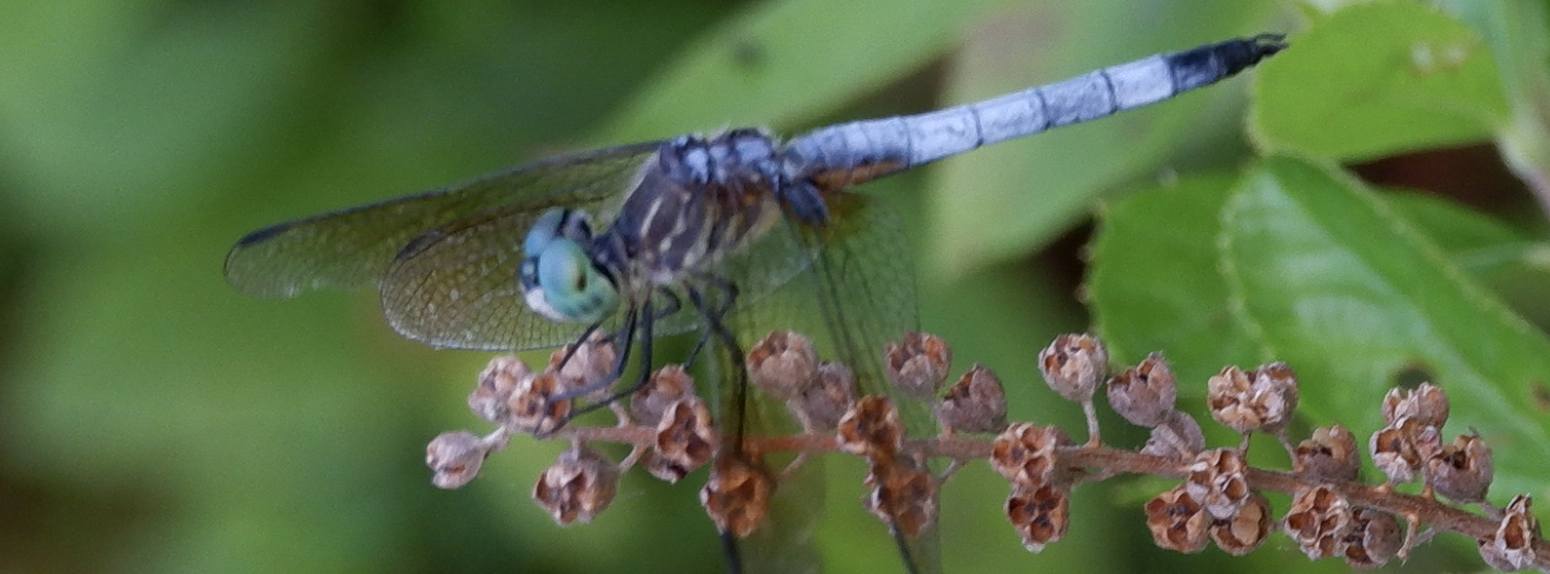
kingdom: Animalia
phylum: Arthropoda
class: Insecta
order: Odonata
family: Libellulidae
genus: Pachydiplax
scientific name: Pachydiplax longipennis
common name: Blue dasher
